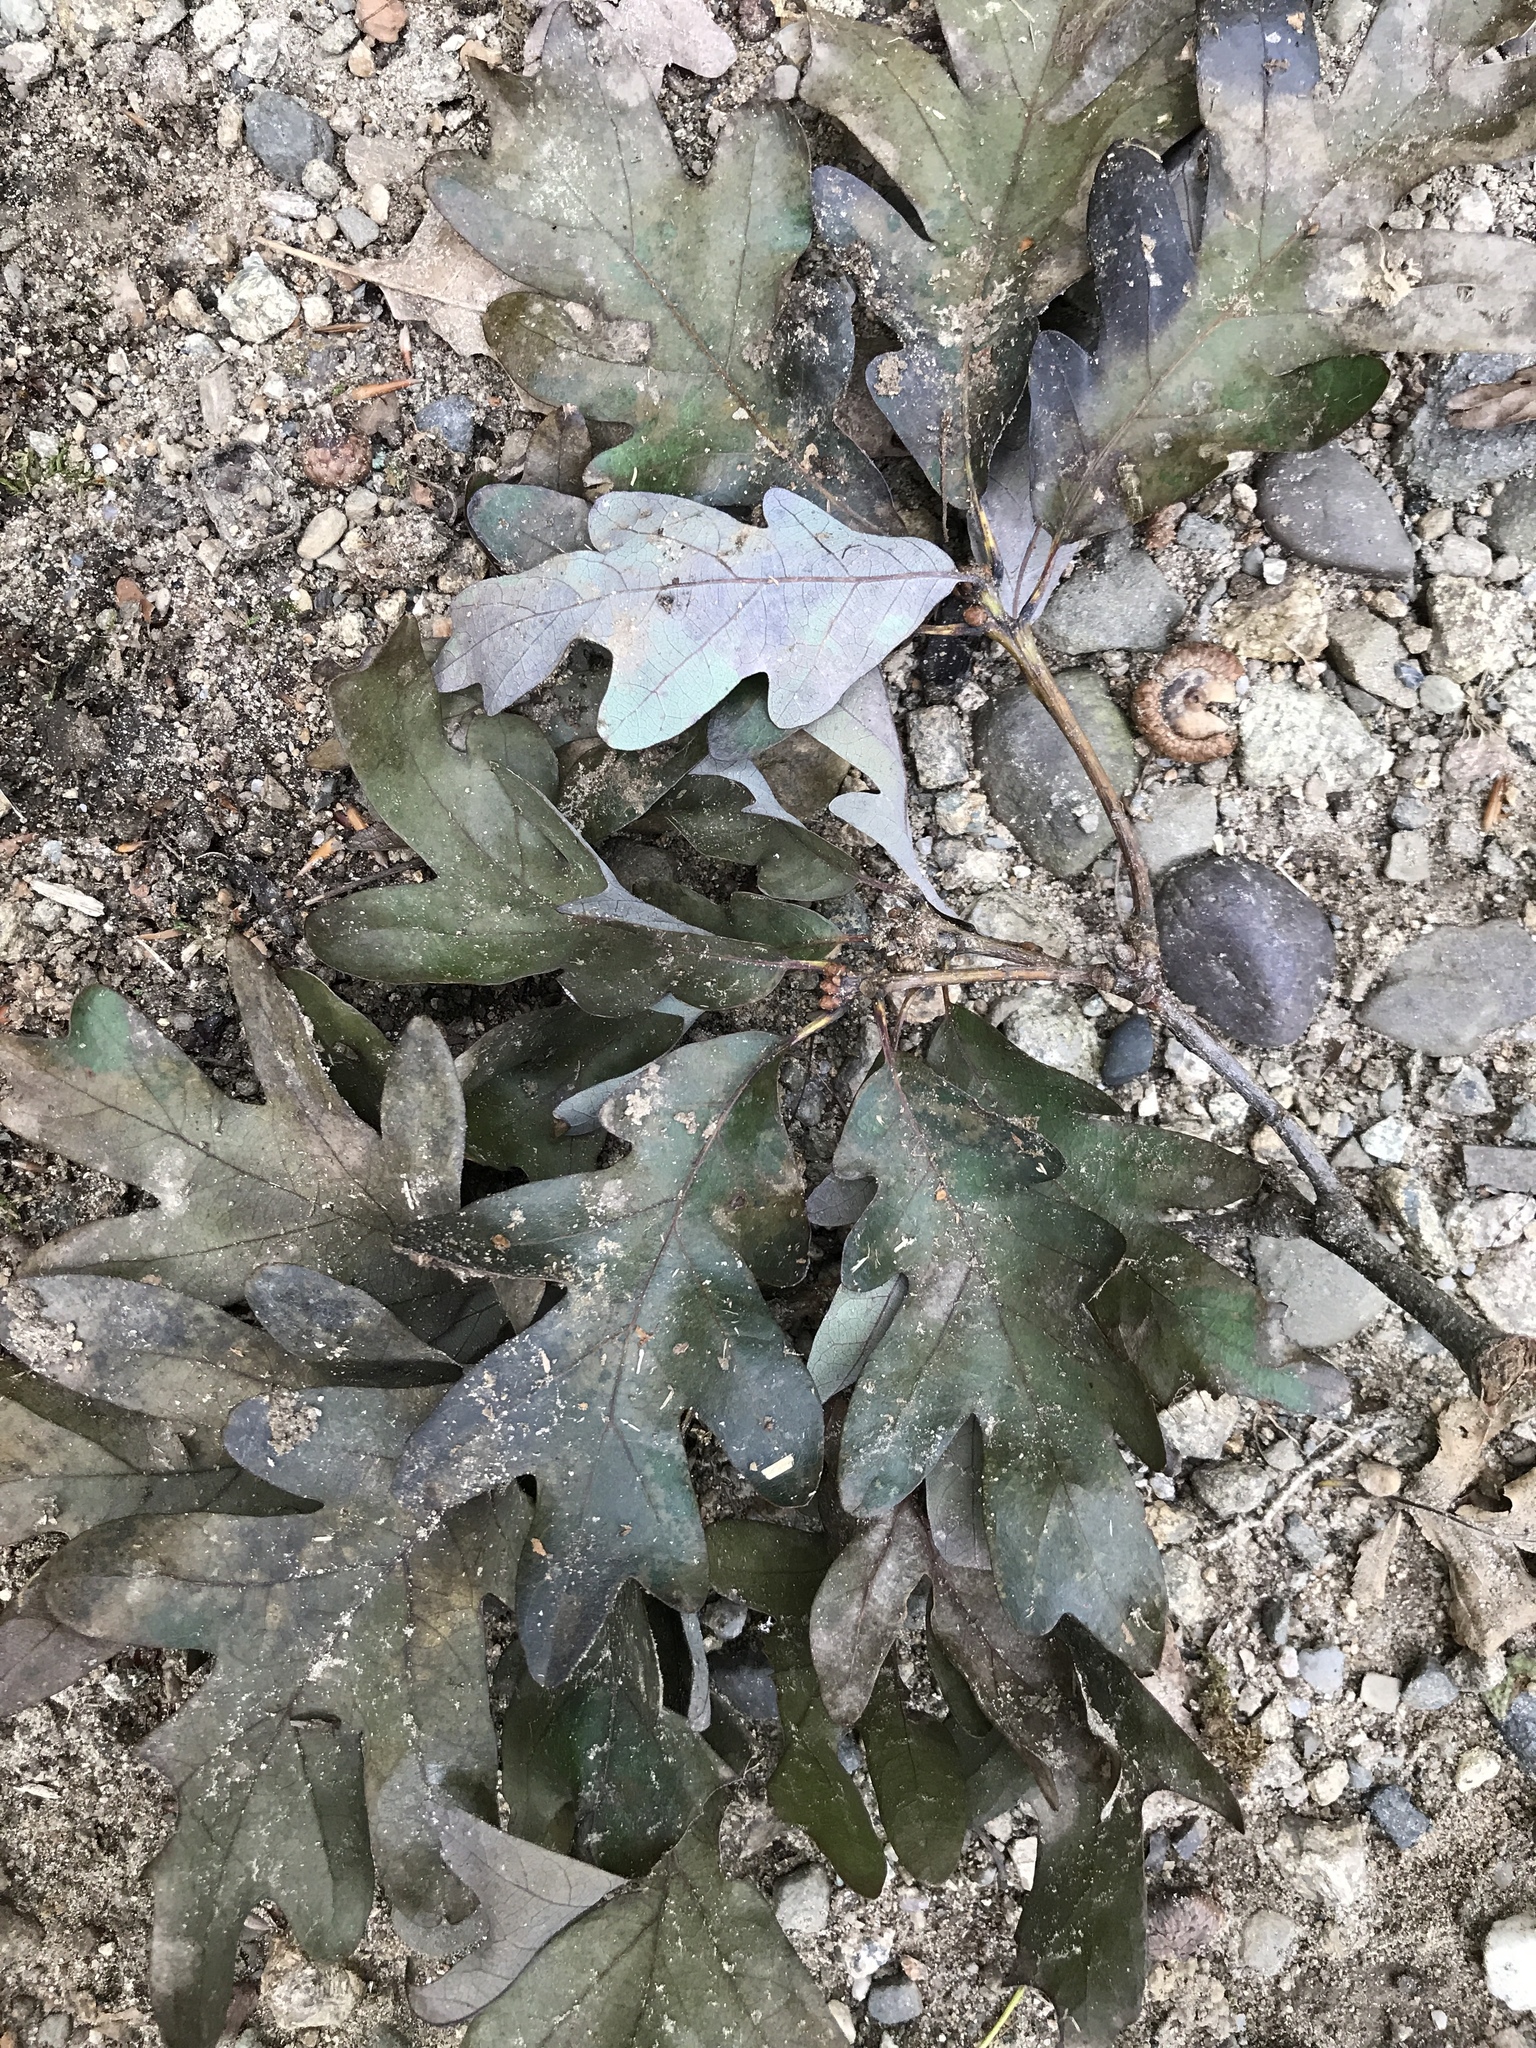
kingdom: Plantae
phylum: Tracheophyta
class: Magnoliopsida
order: Fagales
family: Fagaceae
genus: Quercus
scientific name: Quercus alba
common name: White oak
